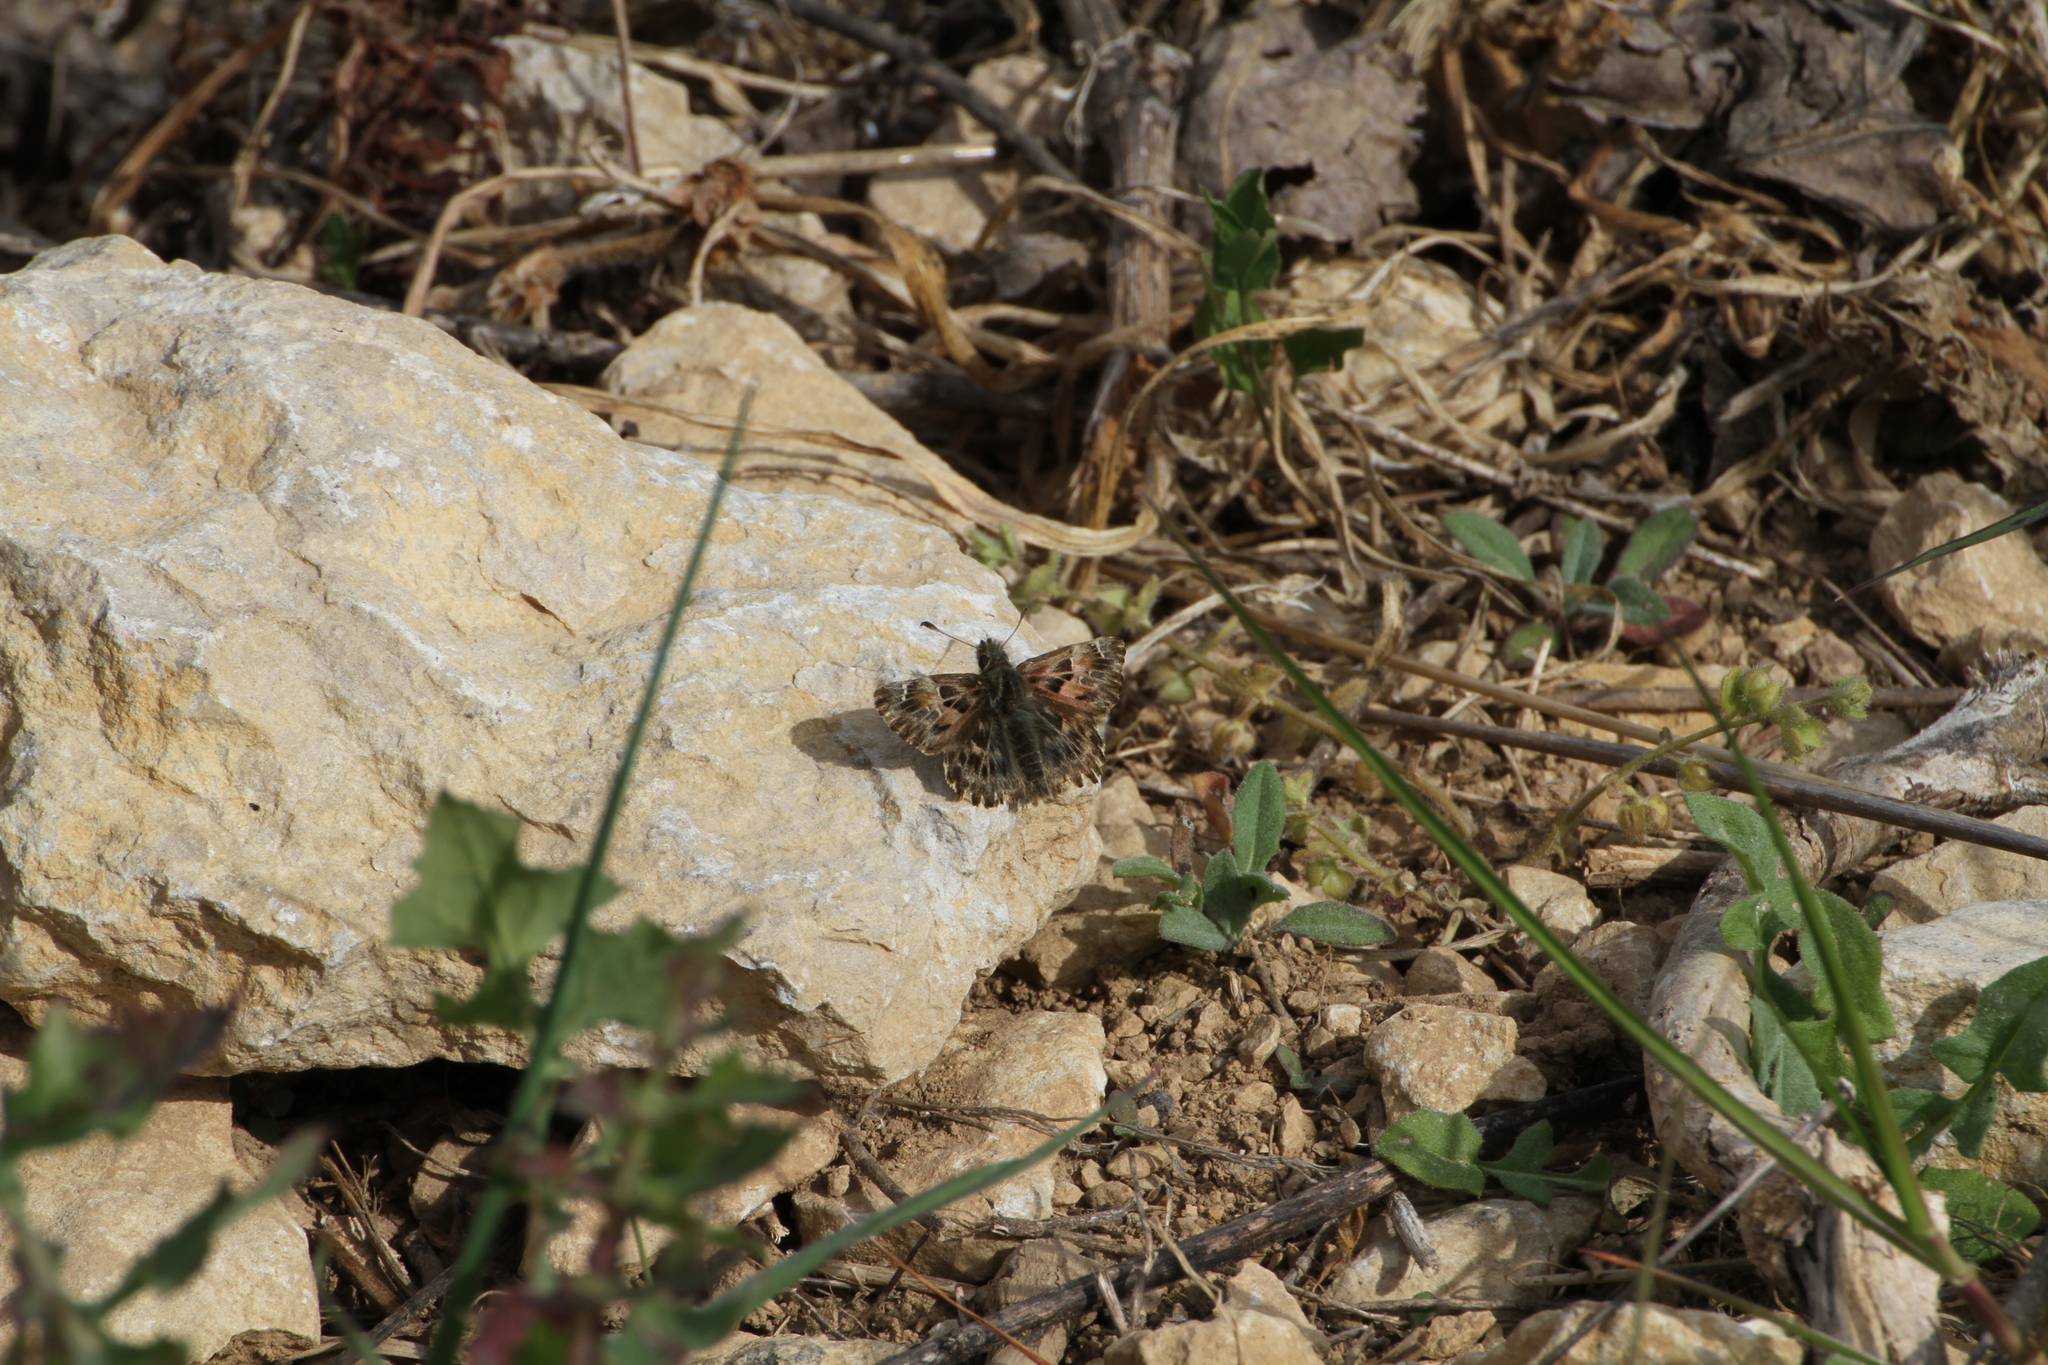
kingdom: Animalia
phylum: Arthropoda
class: Insecta
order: Lepidoptera
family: Hesperiidae
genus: Carcharodus
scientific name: Carcharodus alceae
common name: Mallow skipper
